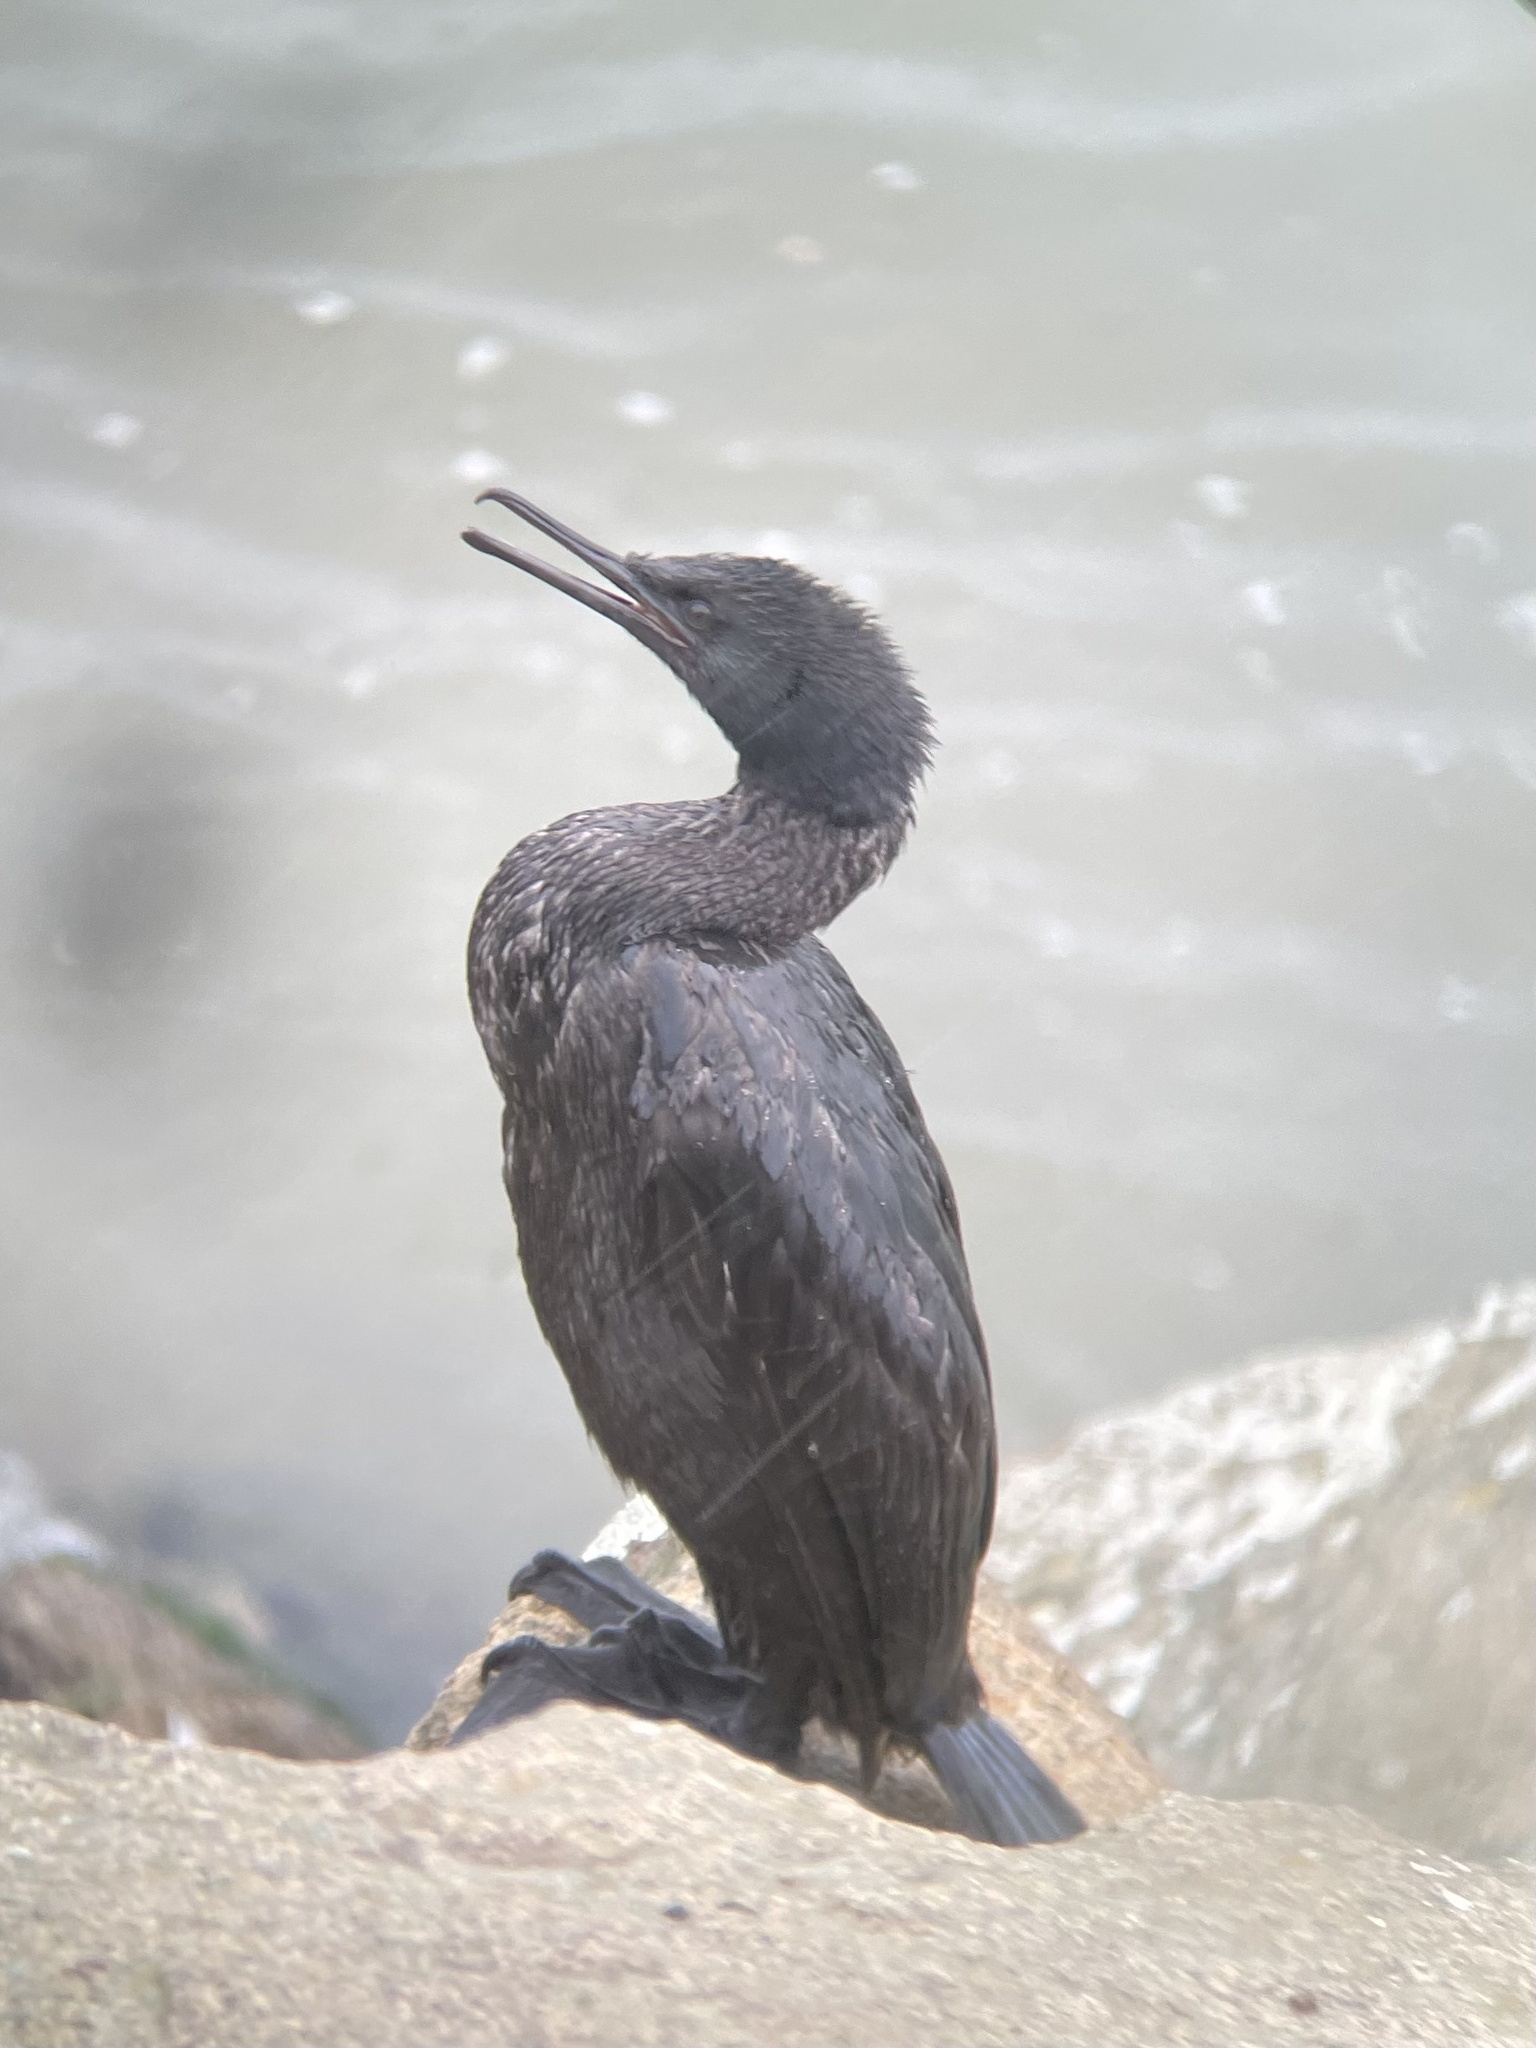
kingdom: Animalia
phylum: Chordata
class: Aves
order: Suliformes
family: Phalacrocoracidae
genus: Phalacrocorax
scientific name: Phalacrocorax pelagicus
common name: Pelagic cormorant
